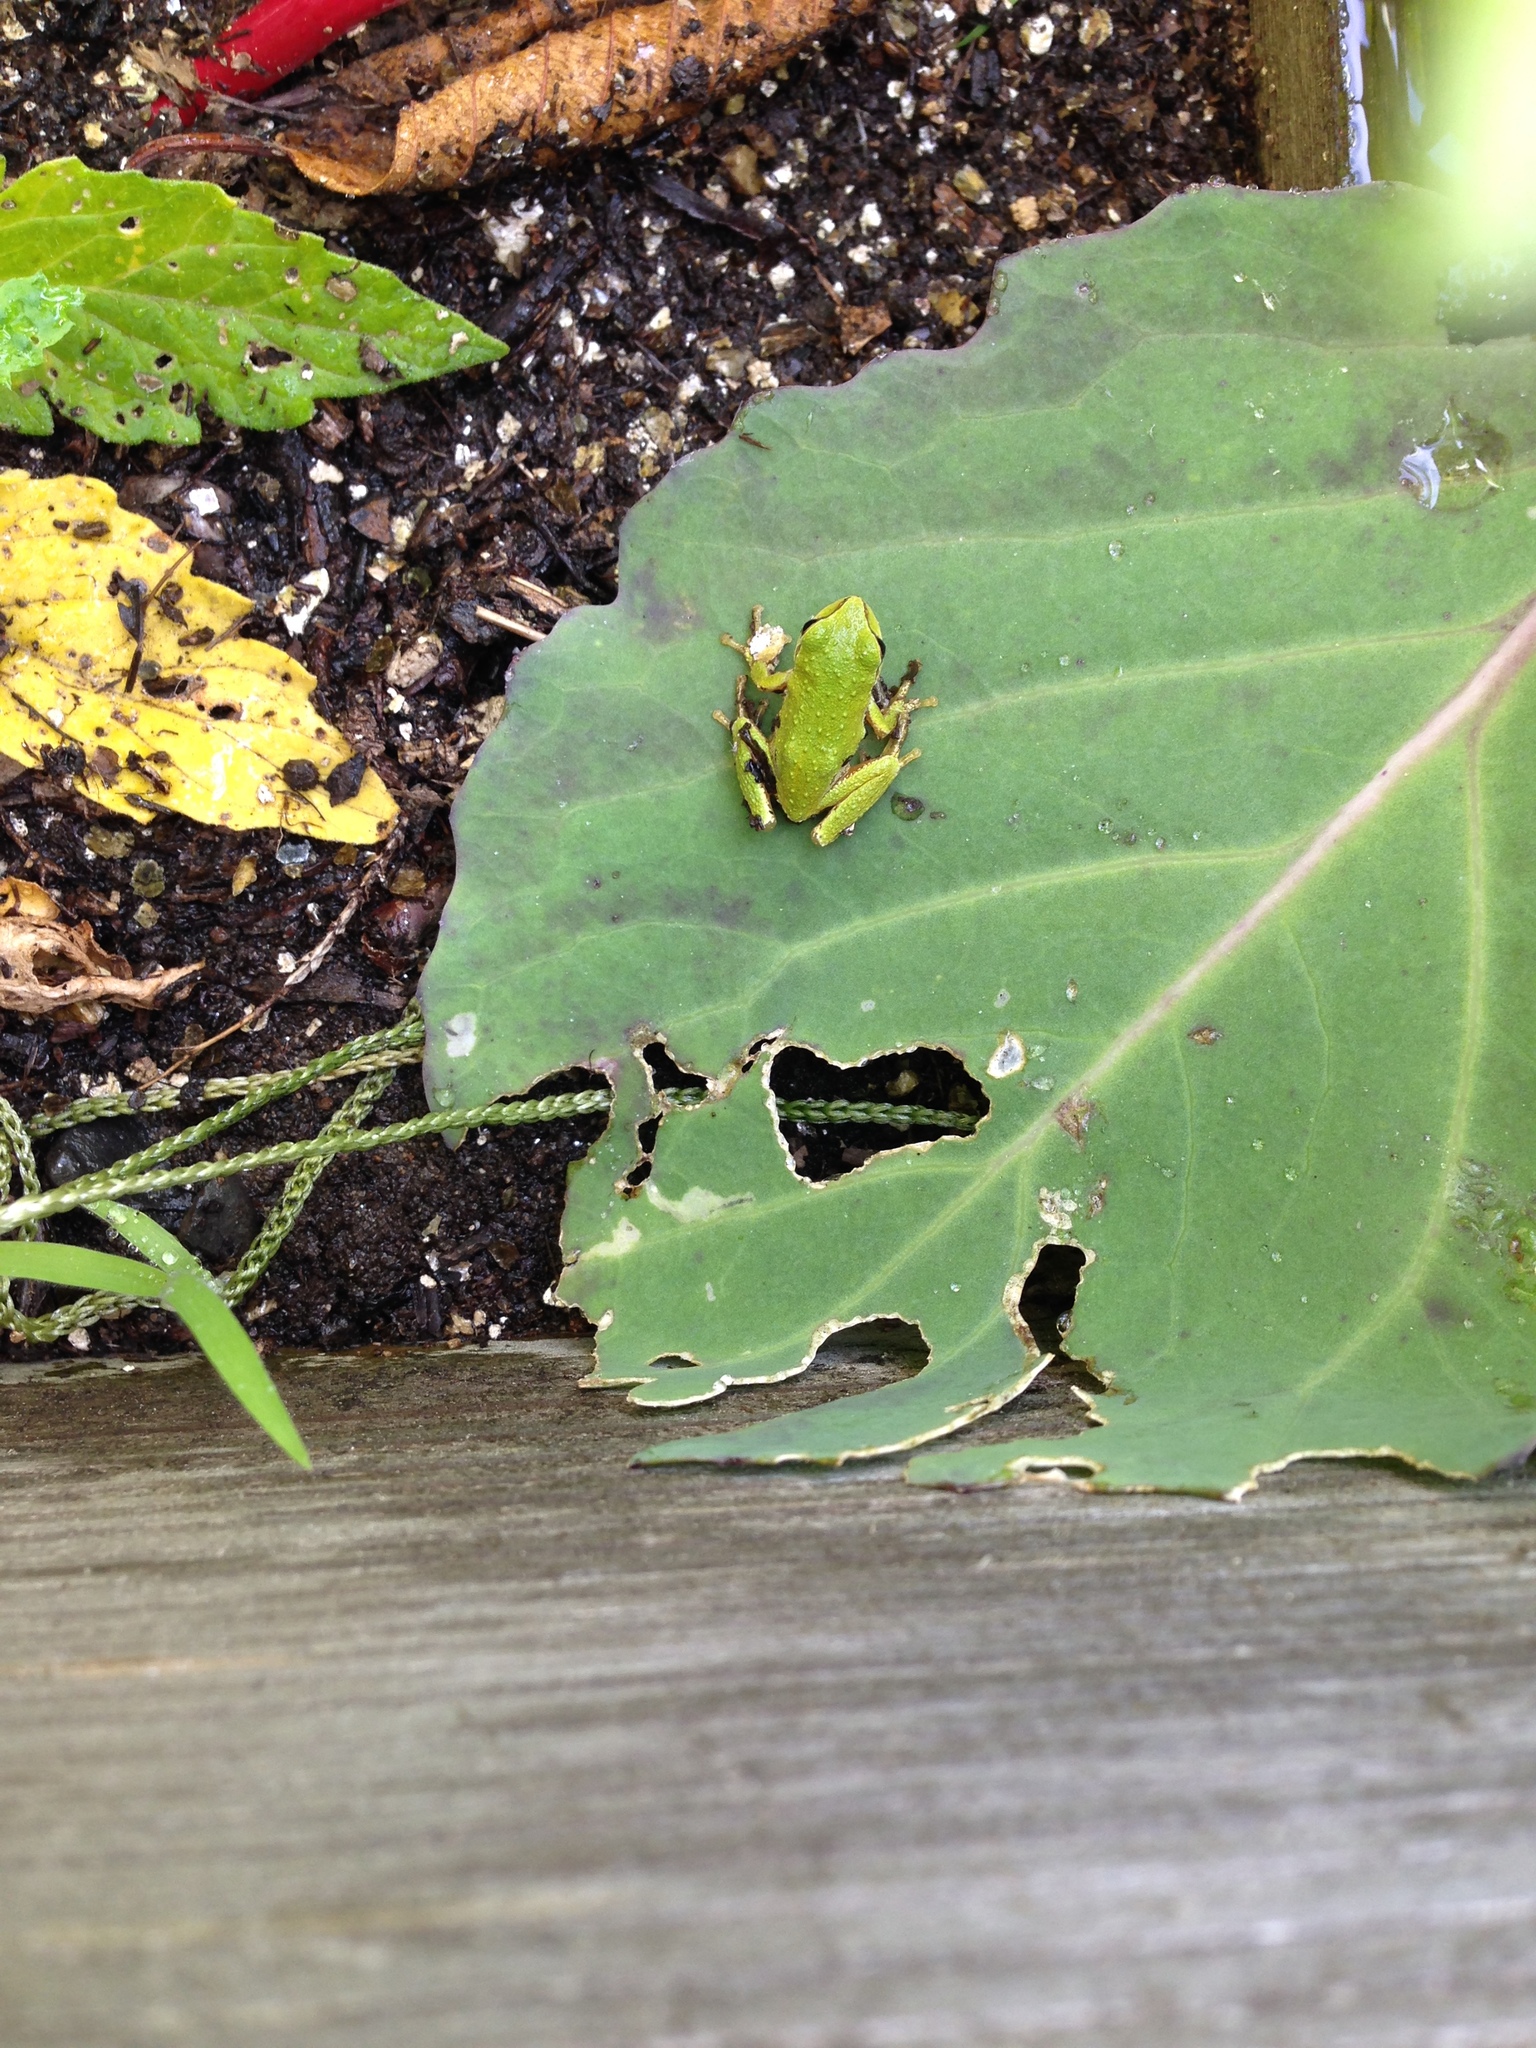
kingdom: Animalia
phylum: Chordata
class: Amphibia
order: Anura
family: Hylidae
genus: Pseudacris
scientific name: Pseudacris regilla
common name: Pacific chorus frog
